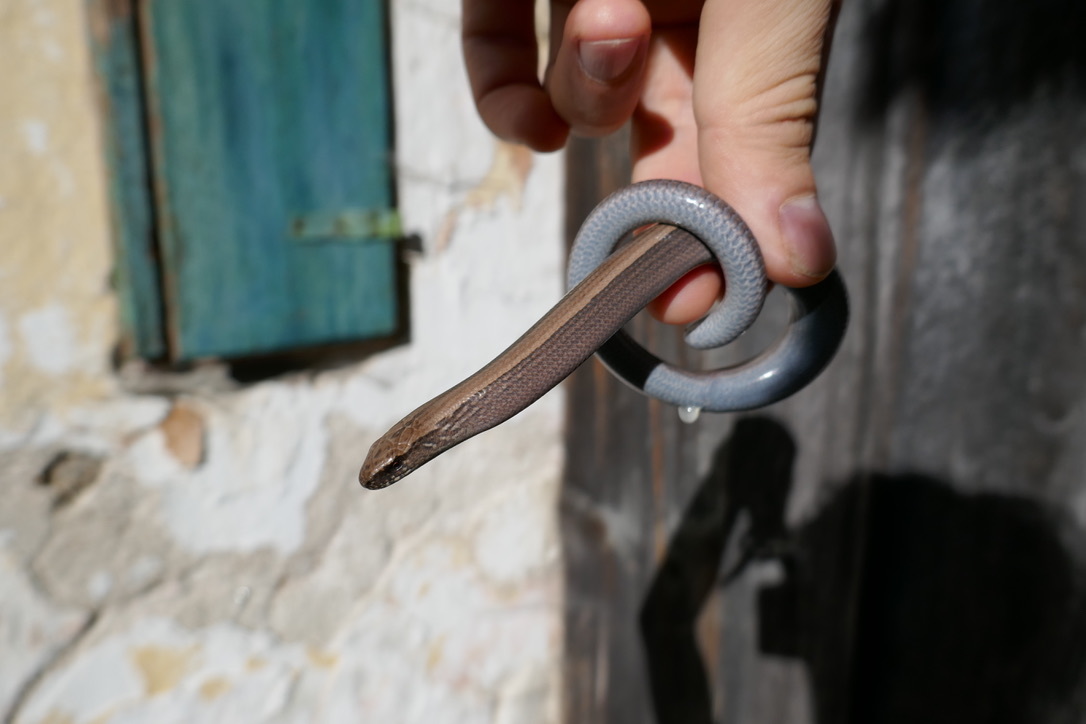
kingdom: Animalia
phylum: Chordata
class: Squamata
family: Anguidae
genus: Anguis
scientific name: Anguis fragilis
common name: Slow worm
